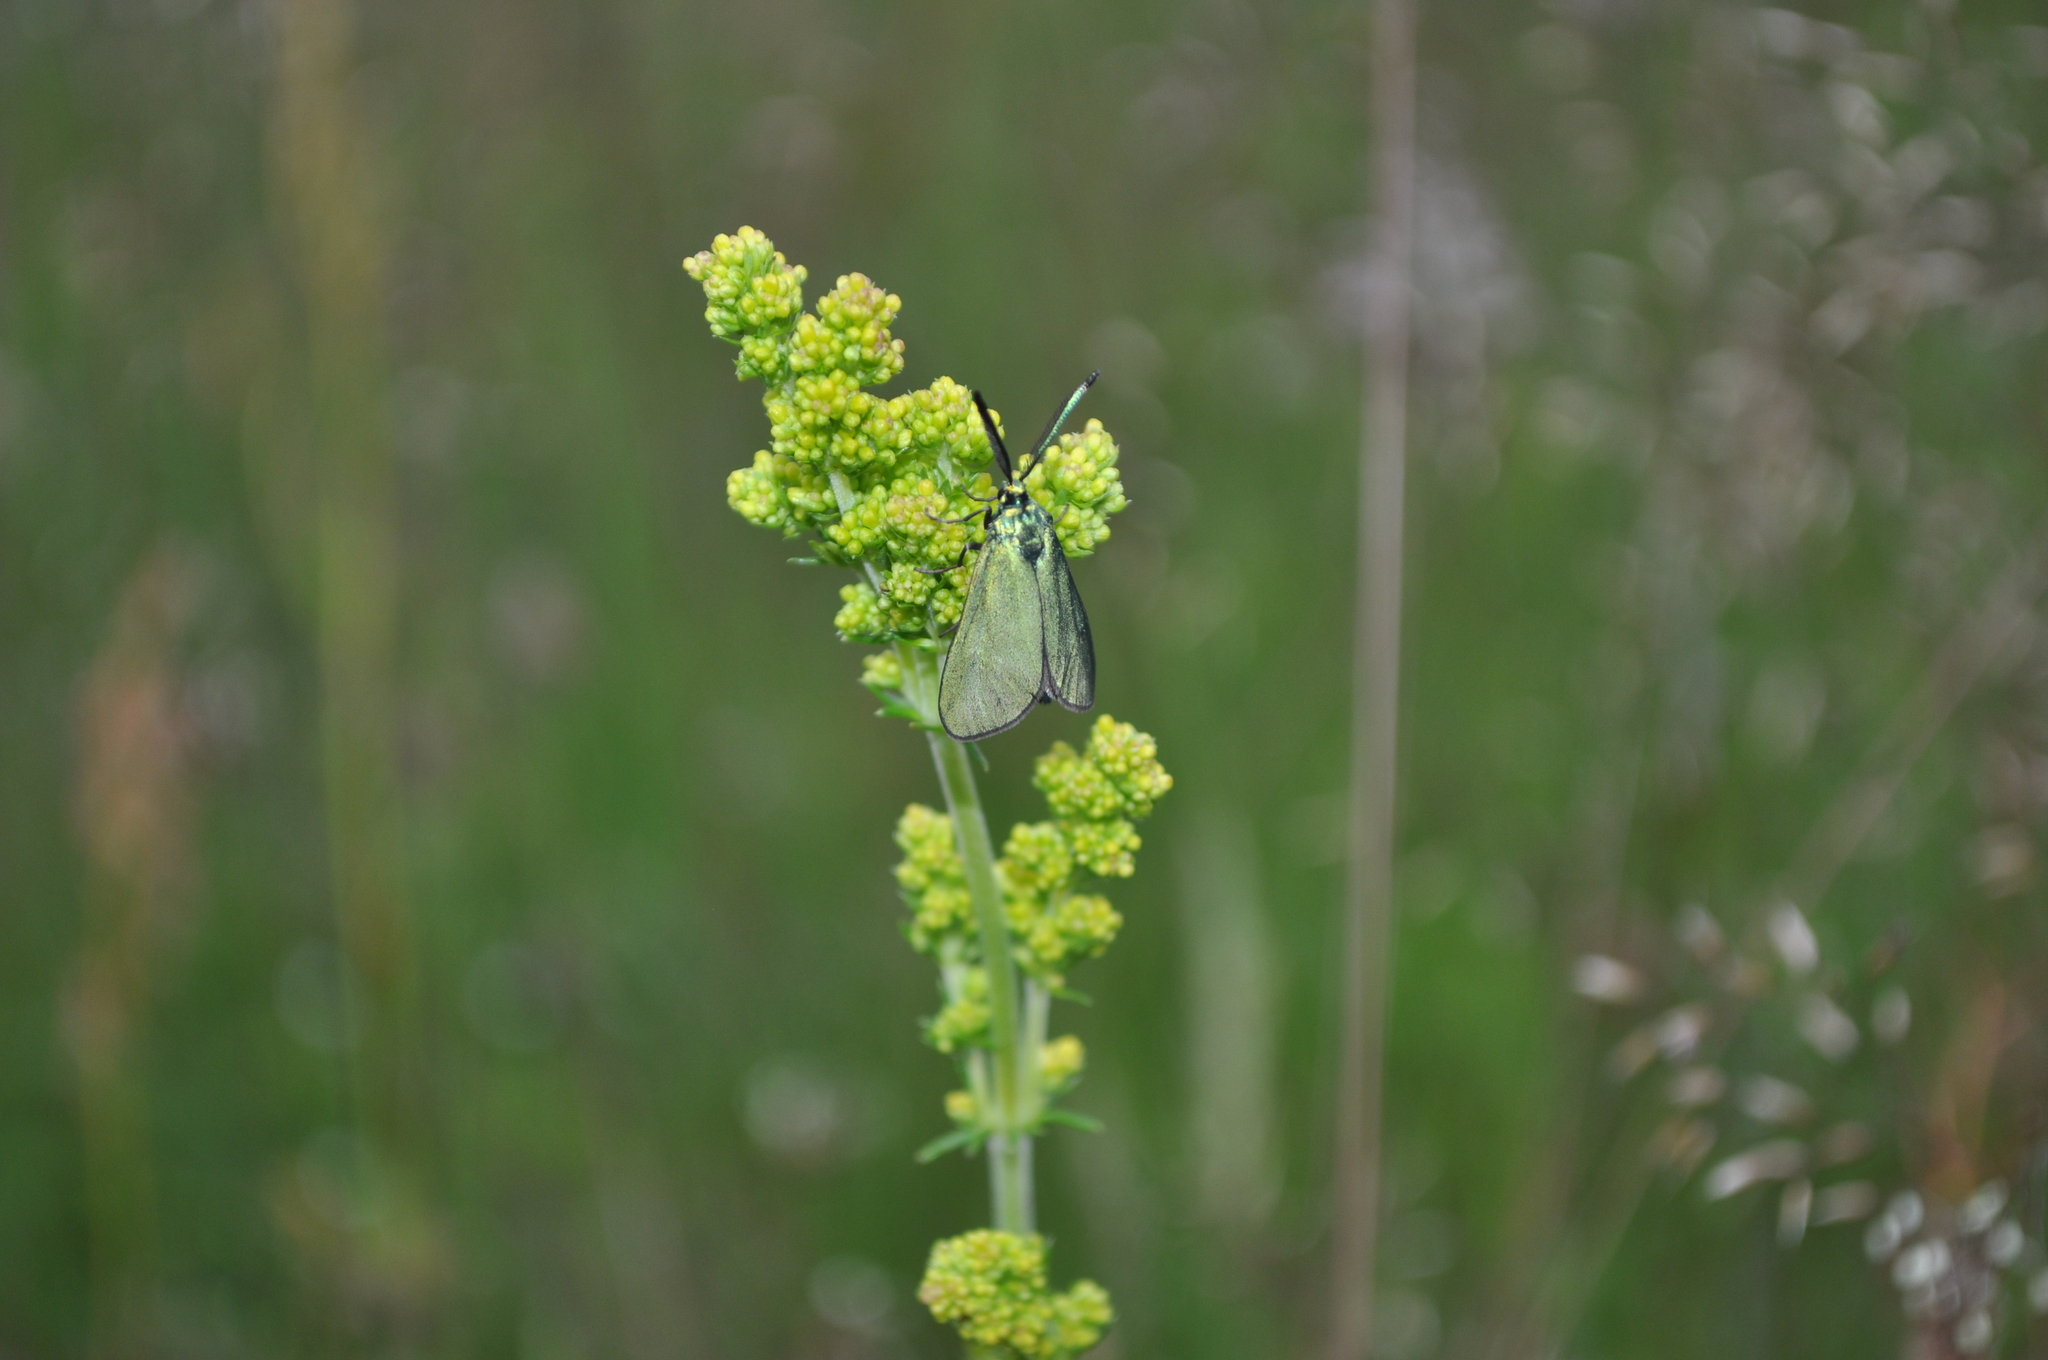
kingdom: Animalia
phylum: Arthropoda
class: Insecta
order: Lepidoptera
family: Zygaenidae
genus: Adscita
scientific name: Adscita statices
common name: Forester
